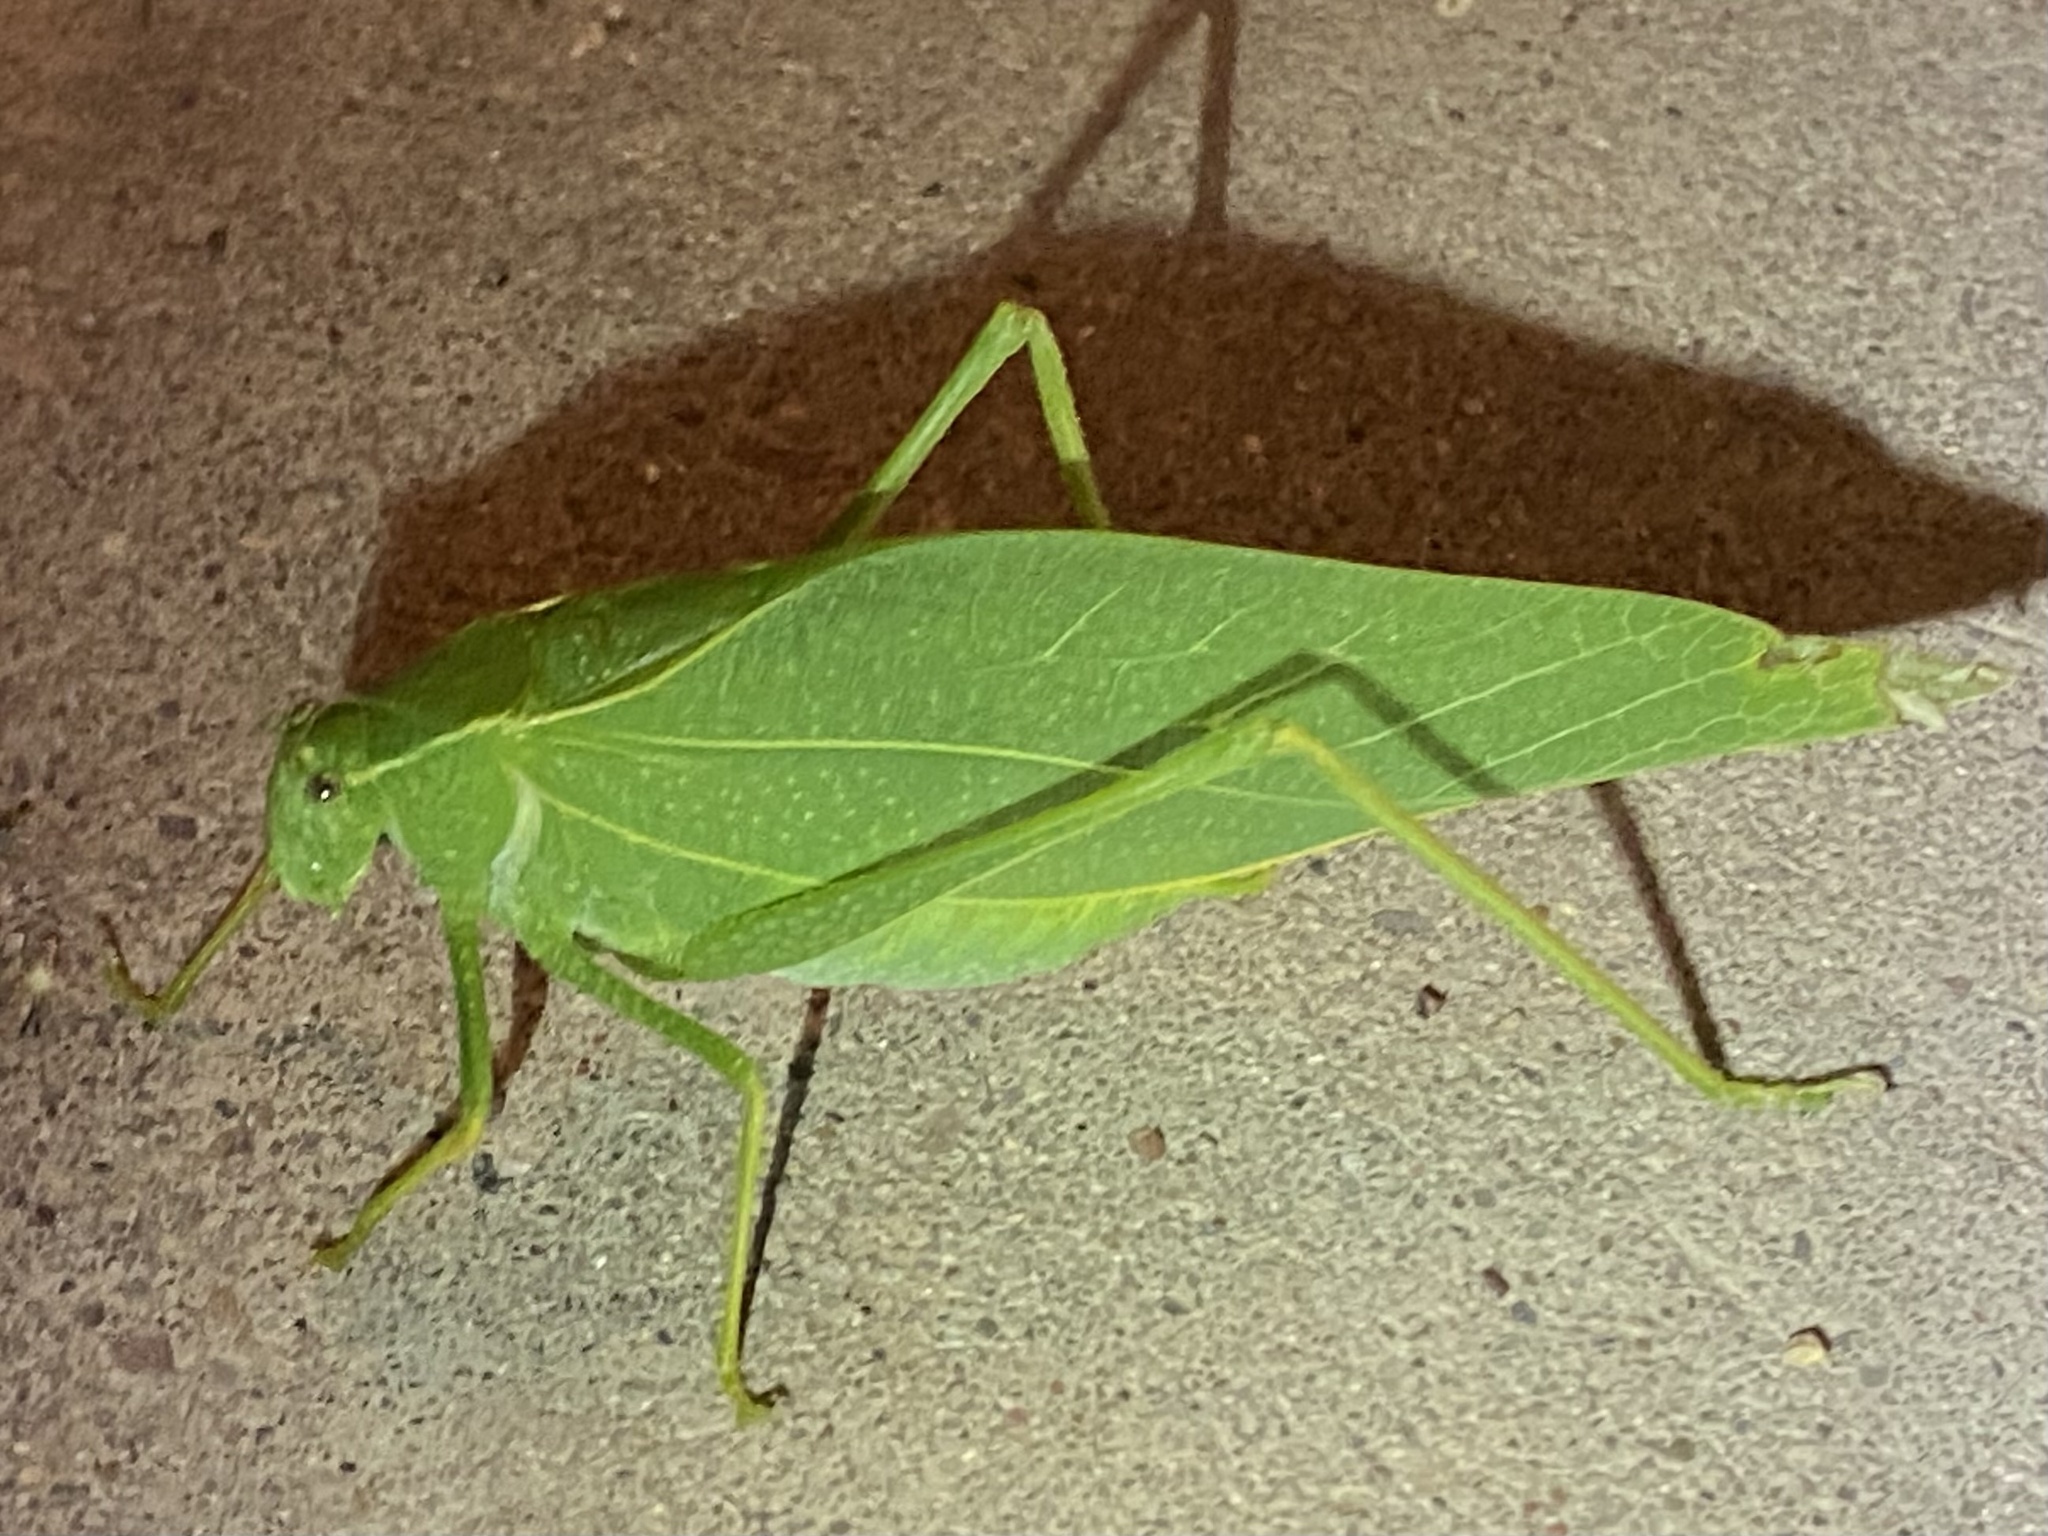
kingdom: Animalia
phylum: Arthropoda
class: Insecta
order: Orthoptera
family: Tettigoniidae
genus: Microcentrum
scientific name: Microcentrum rhombifolium
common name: Broad-winged katydid
